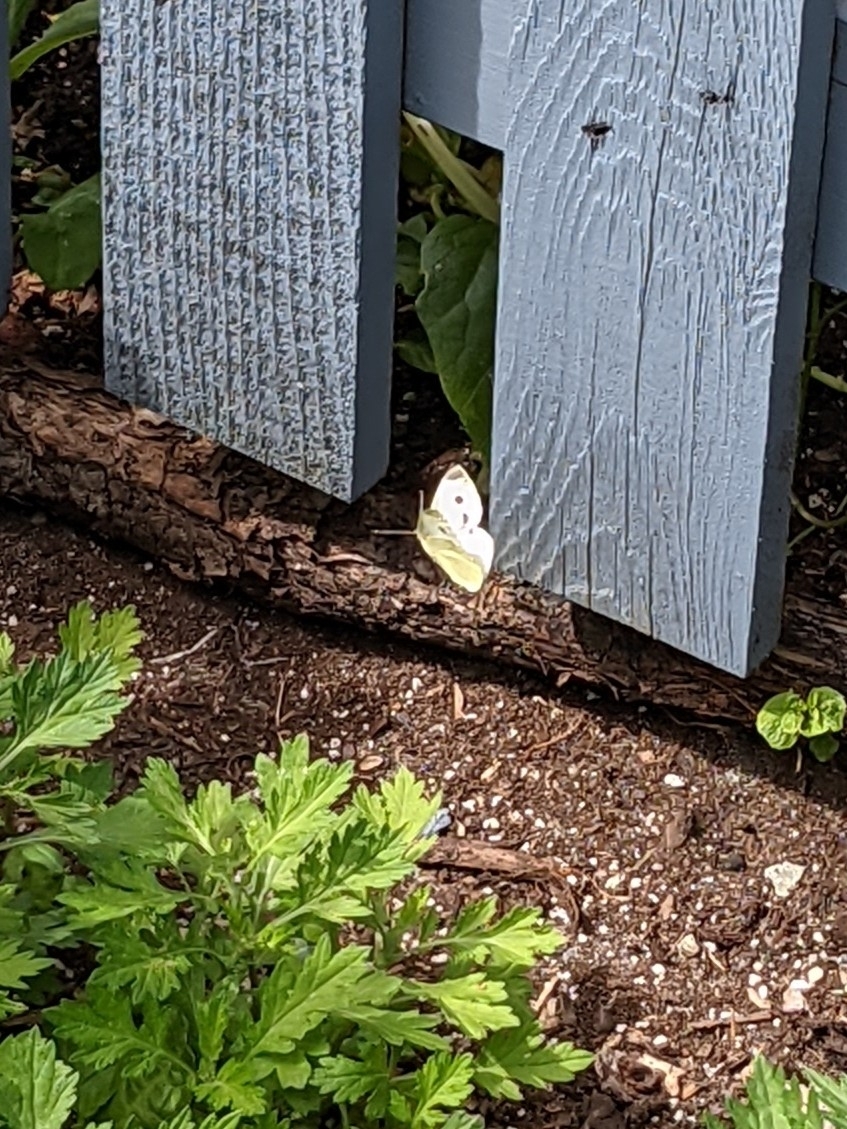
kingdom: Animalia
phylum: Arthropoda
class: Insecta
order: Lepidoptera
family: Pieridae
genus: Pieris
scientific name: Pieris rapae
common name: Small white
